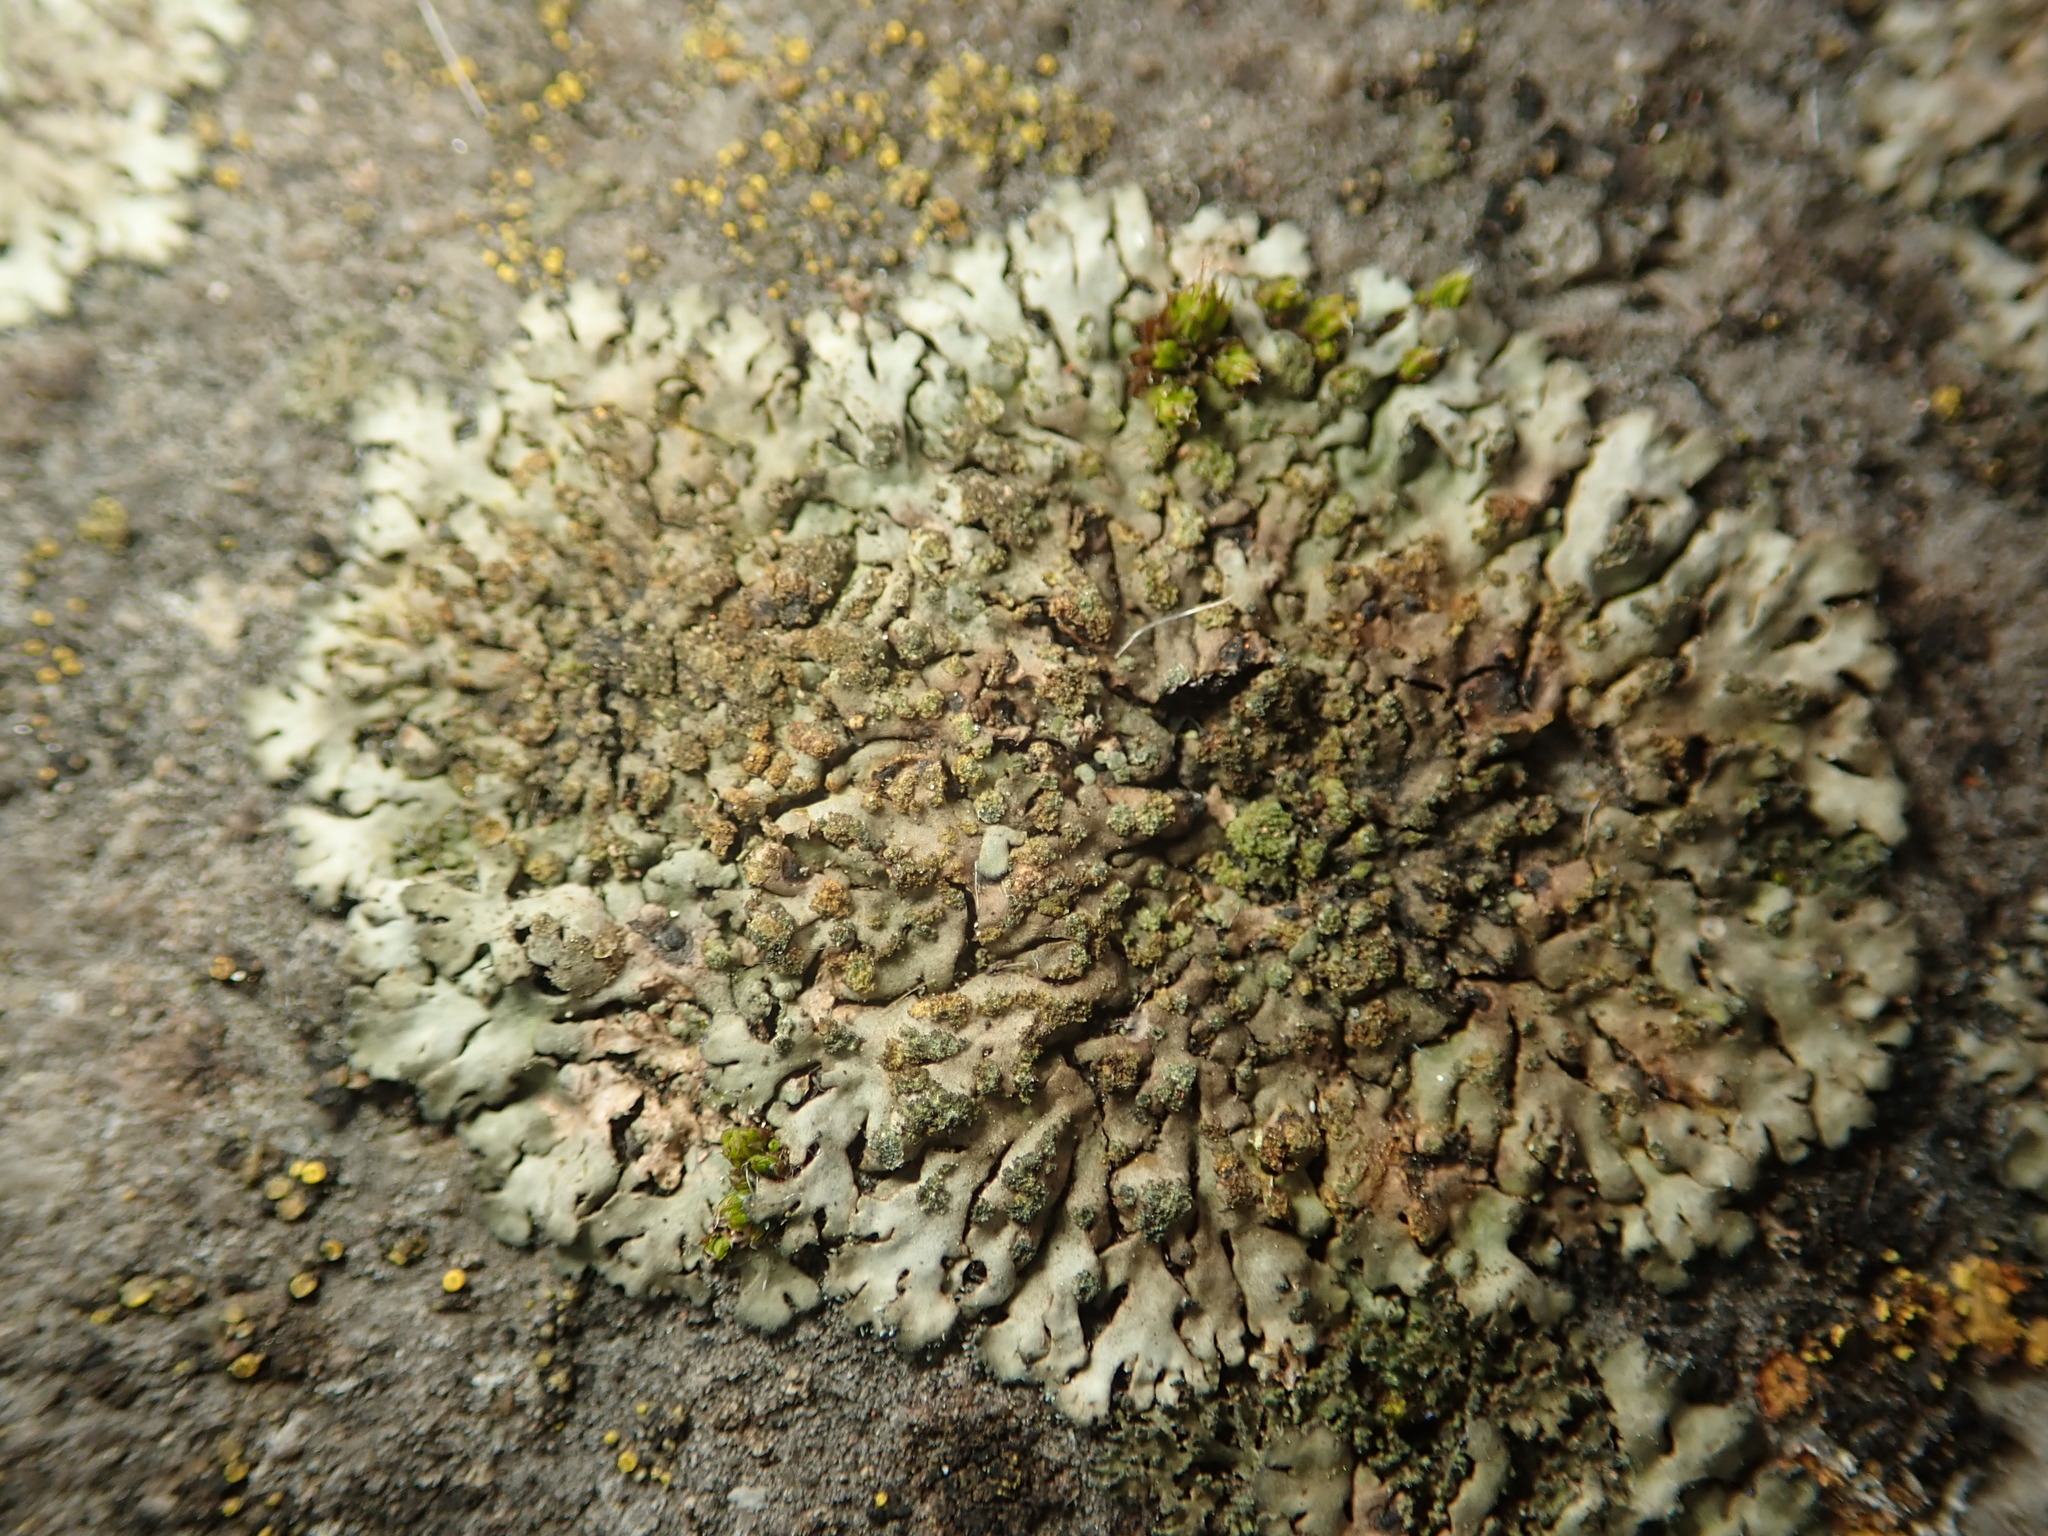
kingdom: Fungi
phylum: Ascomycota
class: Lecanoromycetes
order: Caliciales
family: Physciaceae
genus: Phaeophyscia
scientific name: Phaeophyscia orbicularis
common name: Mealy shadow lichen
